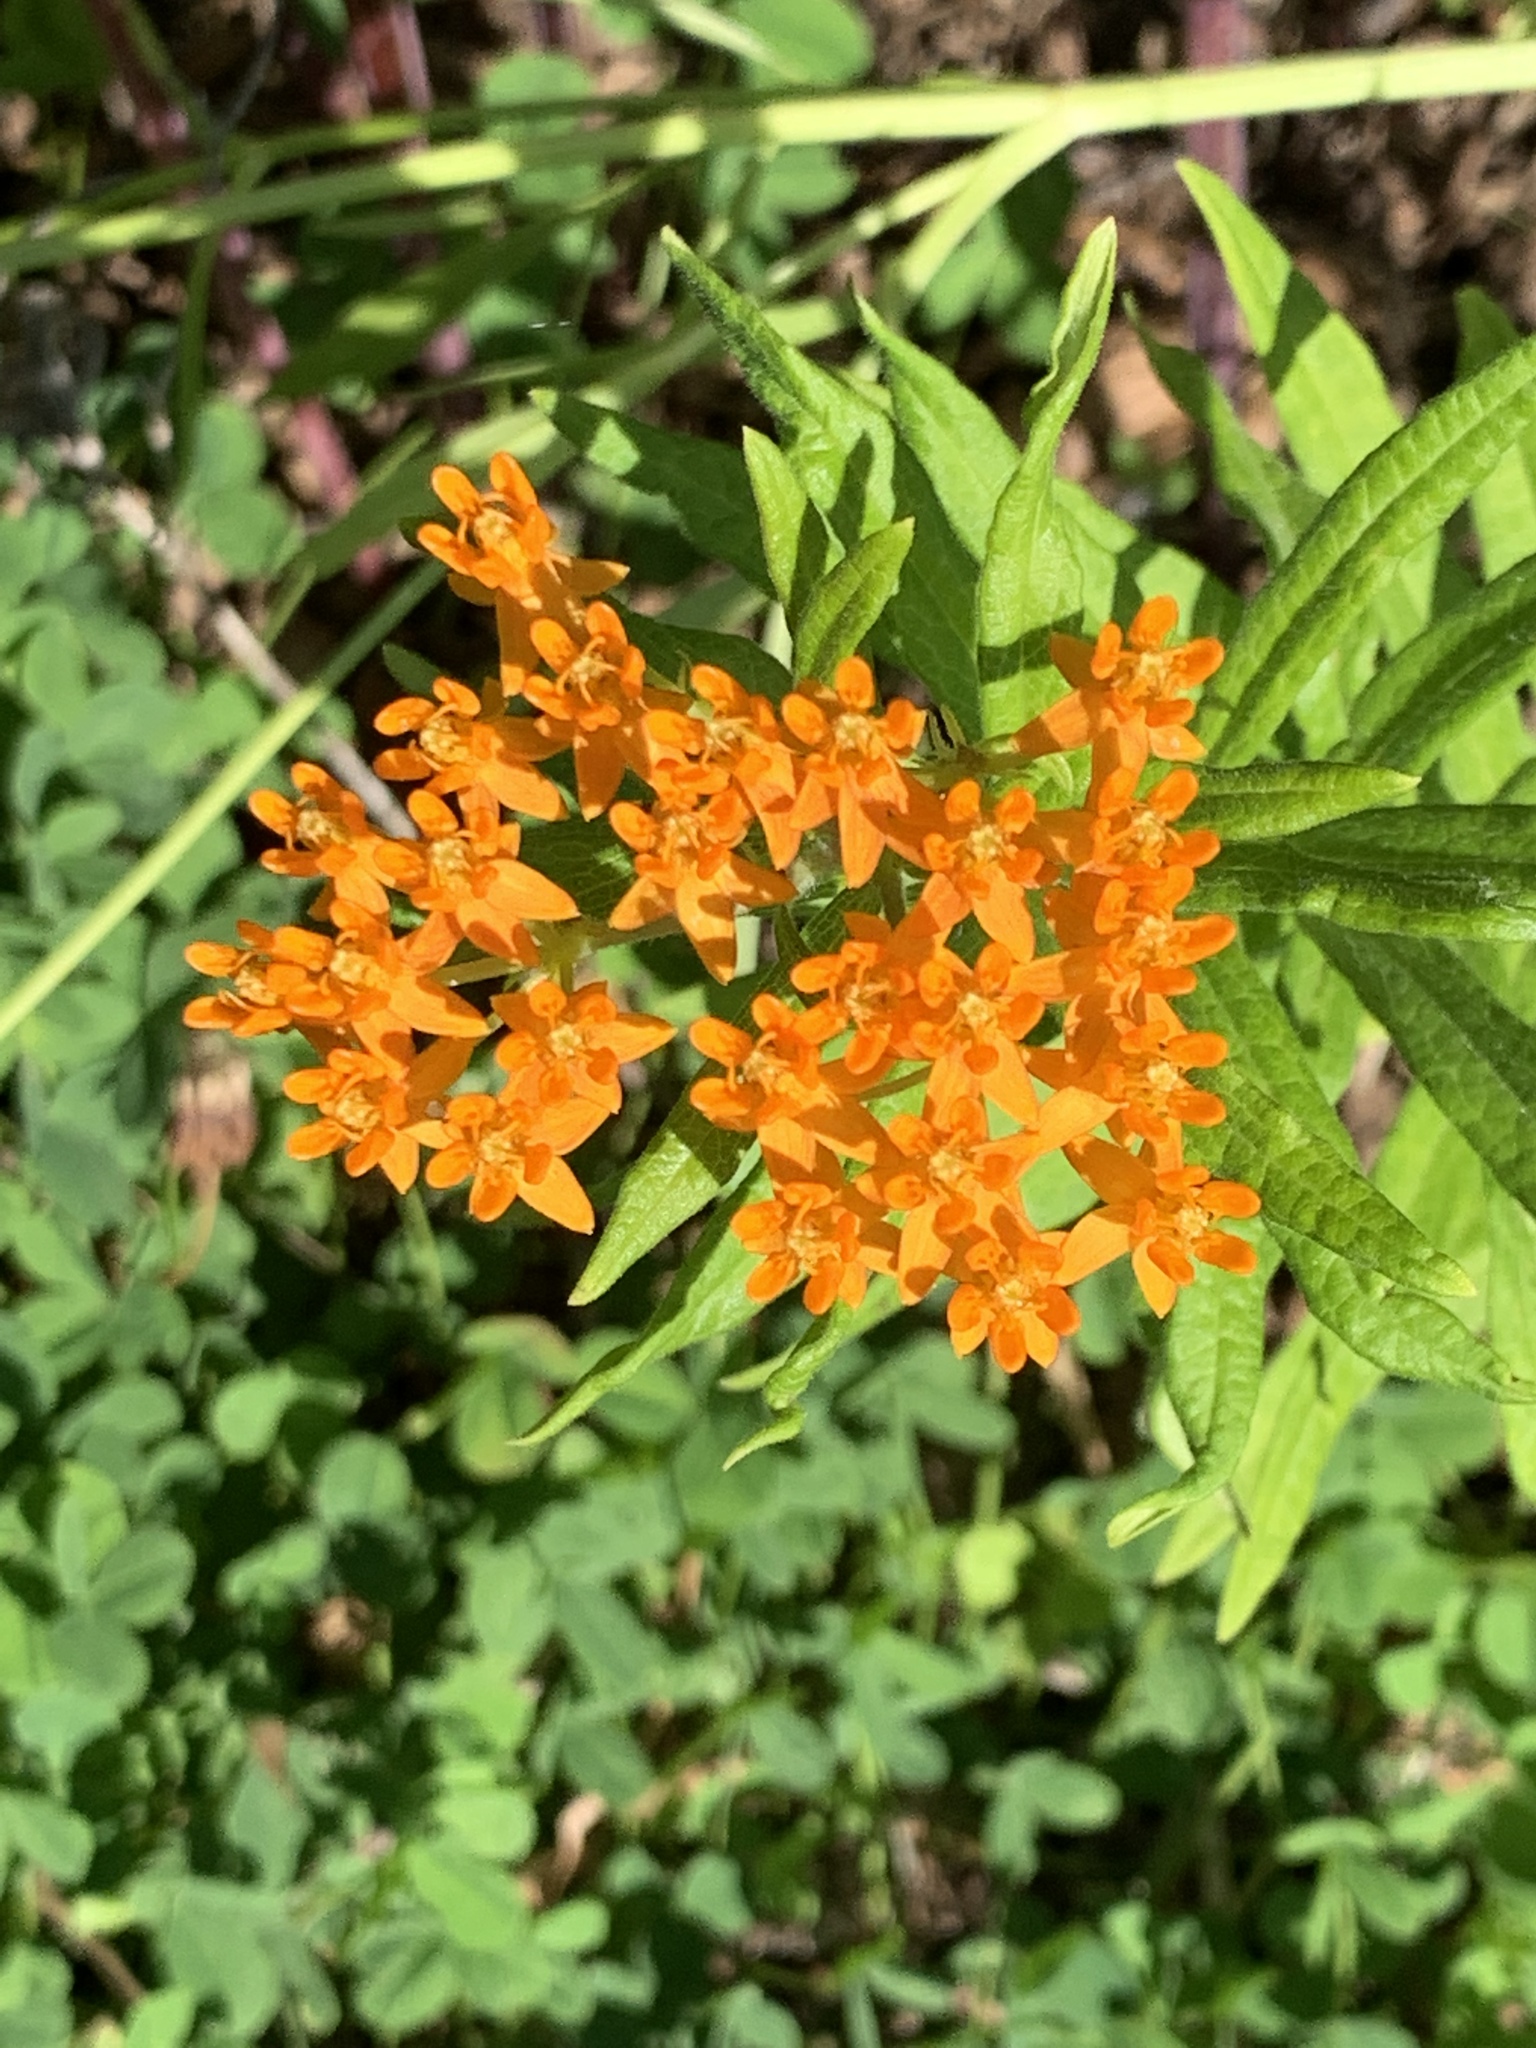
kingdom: Plantae
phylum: Tracheophyta
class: Magnoliopsida
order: Gentianales
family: Apocynaceae
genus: Asclepias
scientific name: Asclepias tuberosa
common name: Butterfly milkweed
